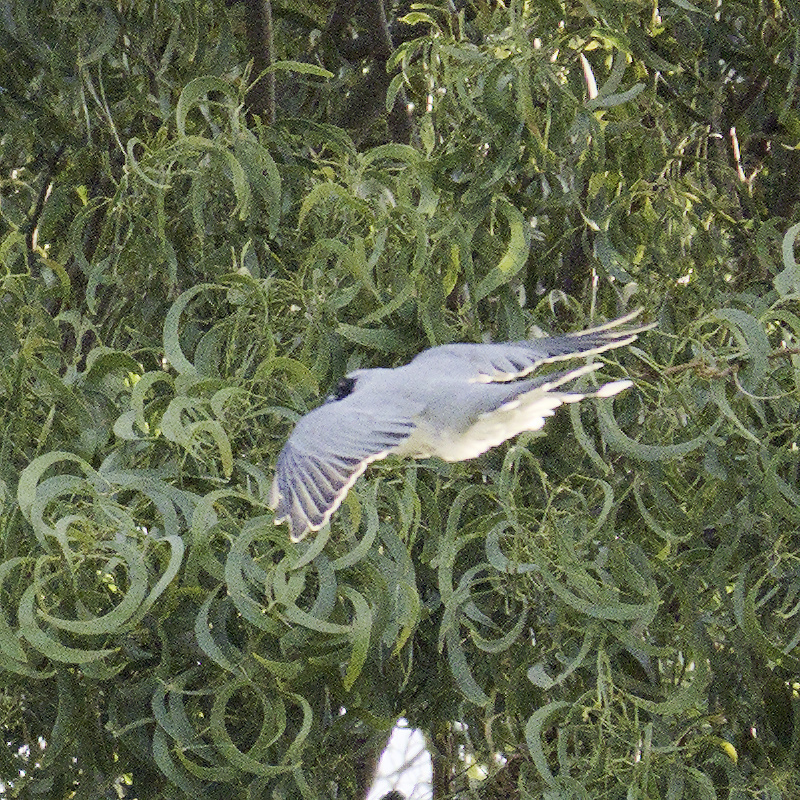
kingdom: Animalia
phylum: Chordata
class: Aves
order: Passeriformes
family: Campephagidae
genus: Coracina
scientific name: Coracina novaehollandiae
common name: Black-faced cuckooshrike
